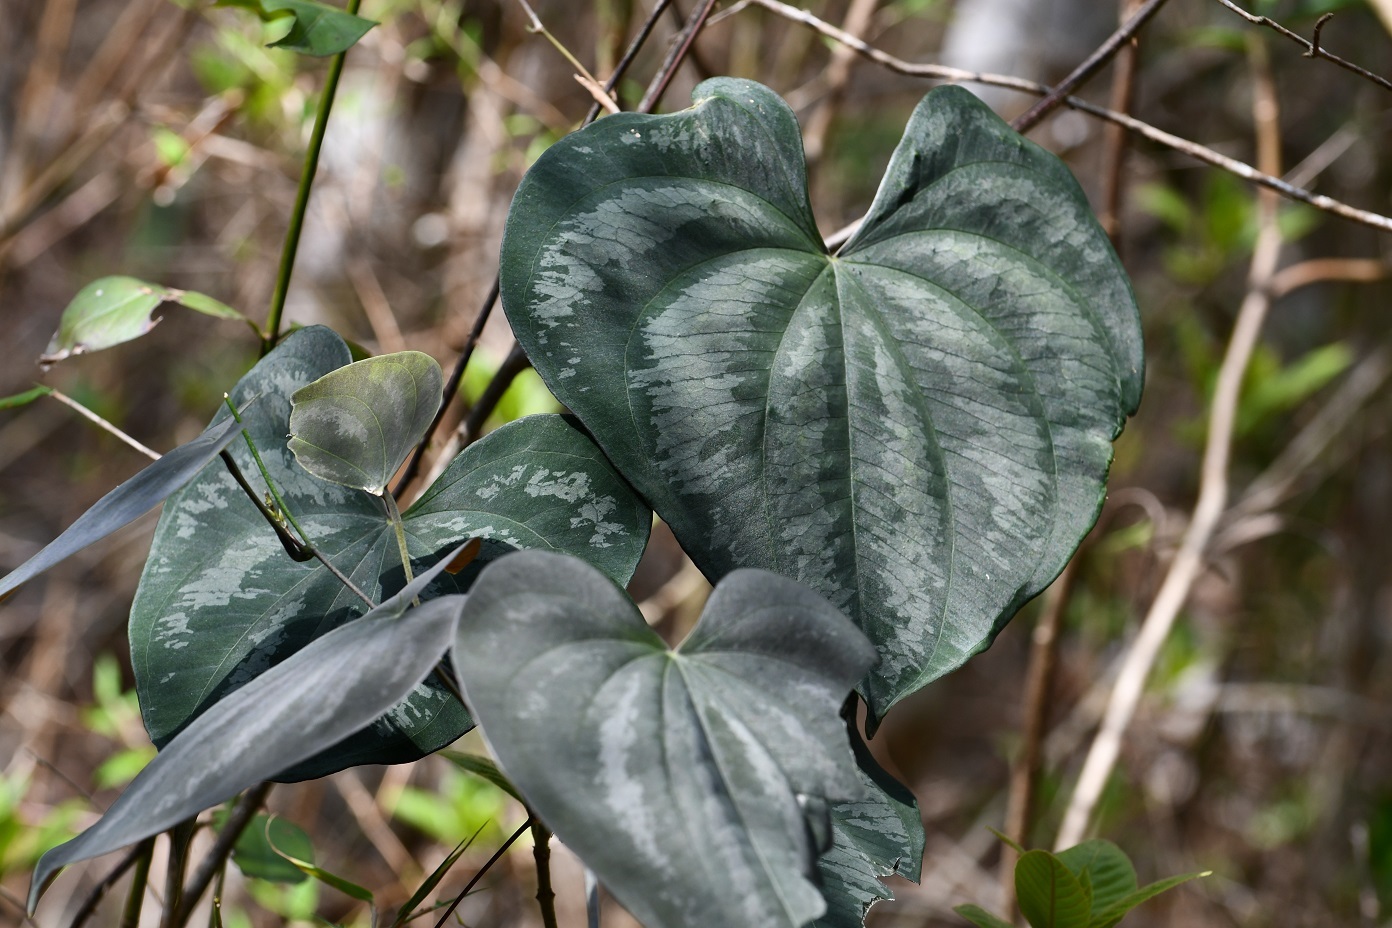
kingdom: Plantae
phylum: Tracheophyta
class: Liliopsida
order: Dioscoreales
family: Dioscoreaceae
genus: Dioscorea
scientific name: Dioscorea cyanisticta
